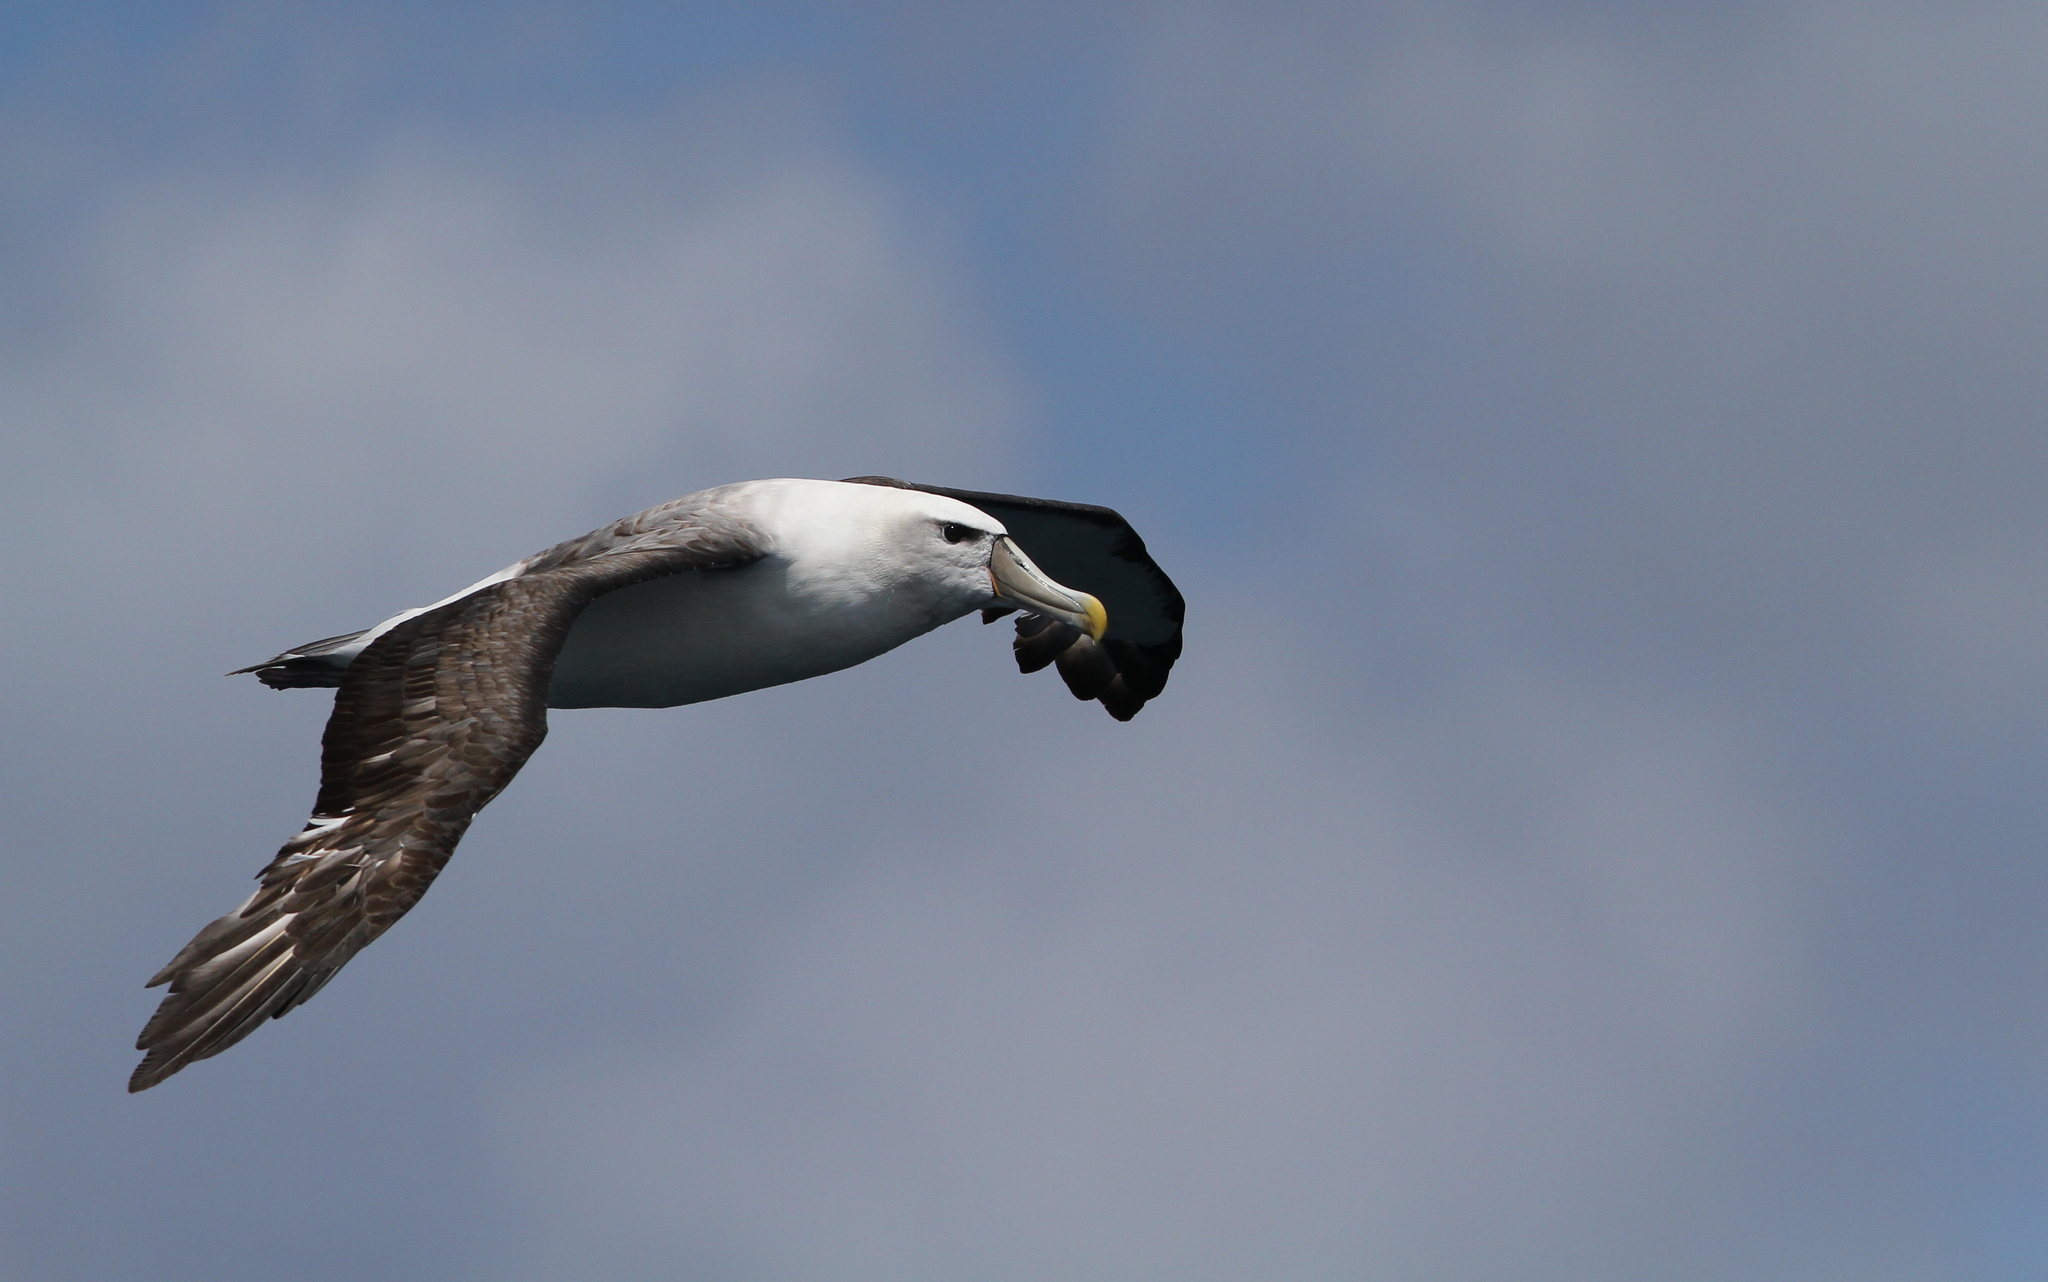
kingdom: Animalia
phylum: Chordata
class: Aves
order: Procellariiformes
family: Diomedeidae
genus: Thalassarche
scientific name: Thalassarche cauta
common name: Shy albatross
